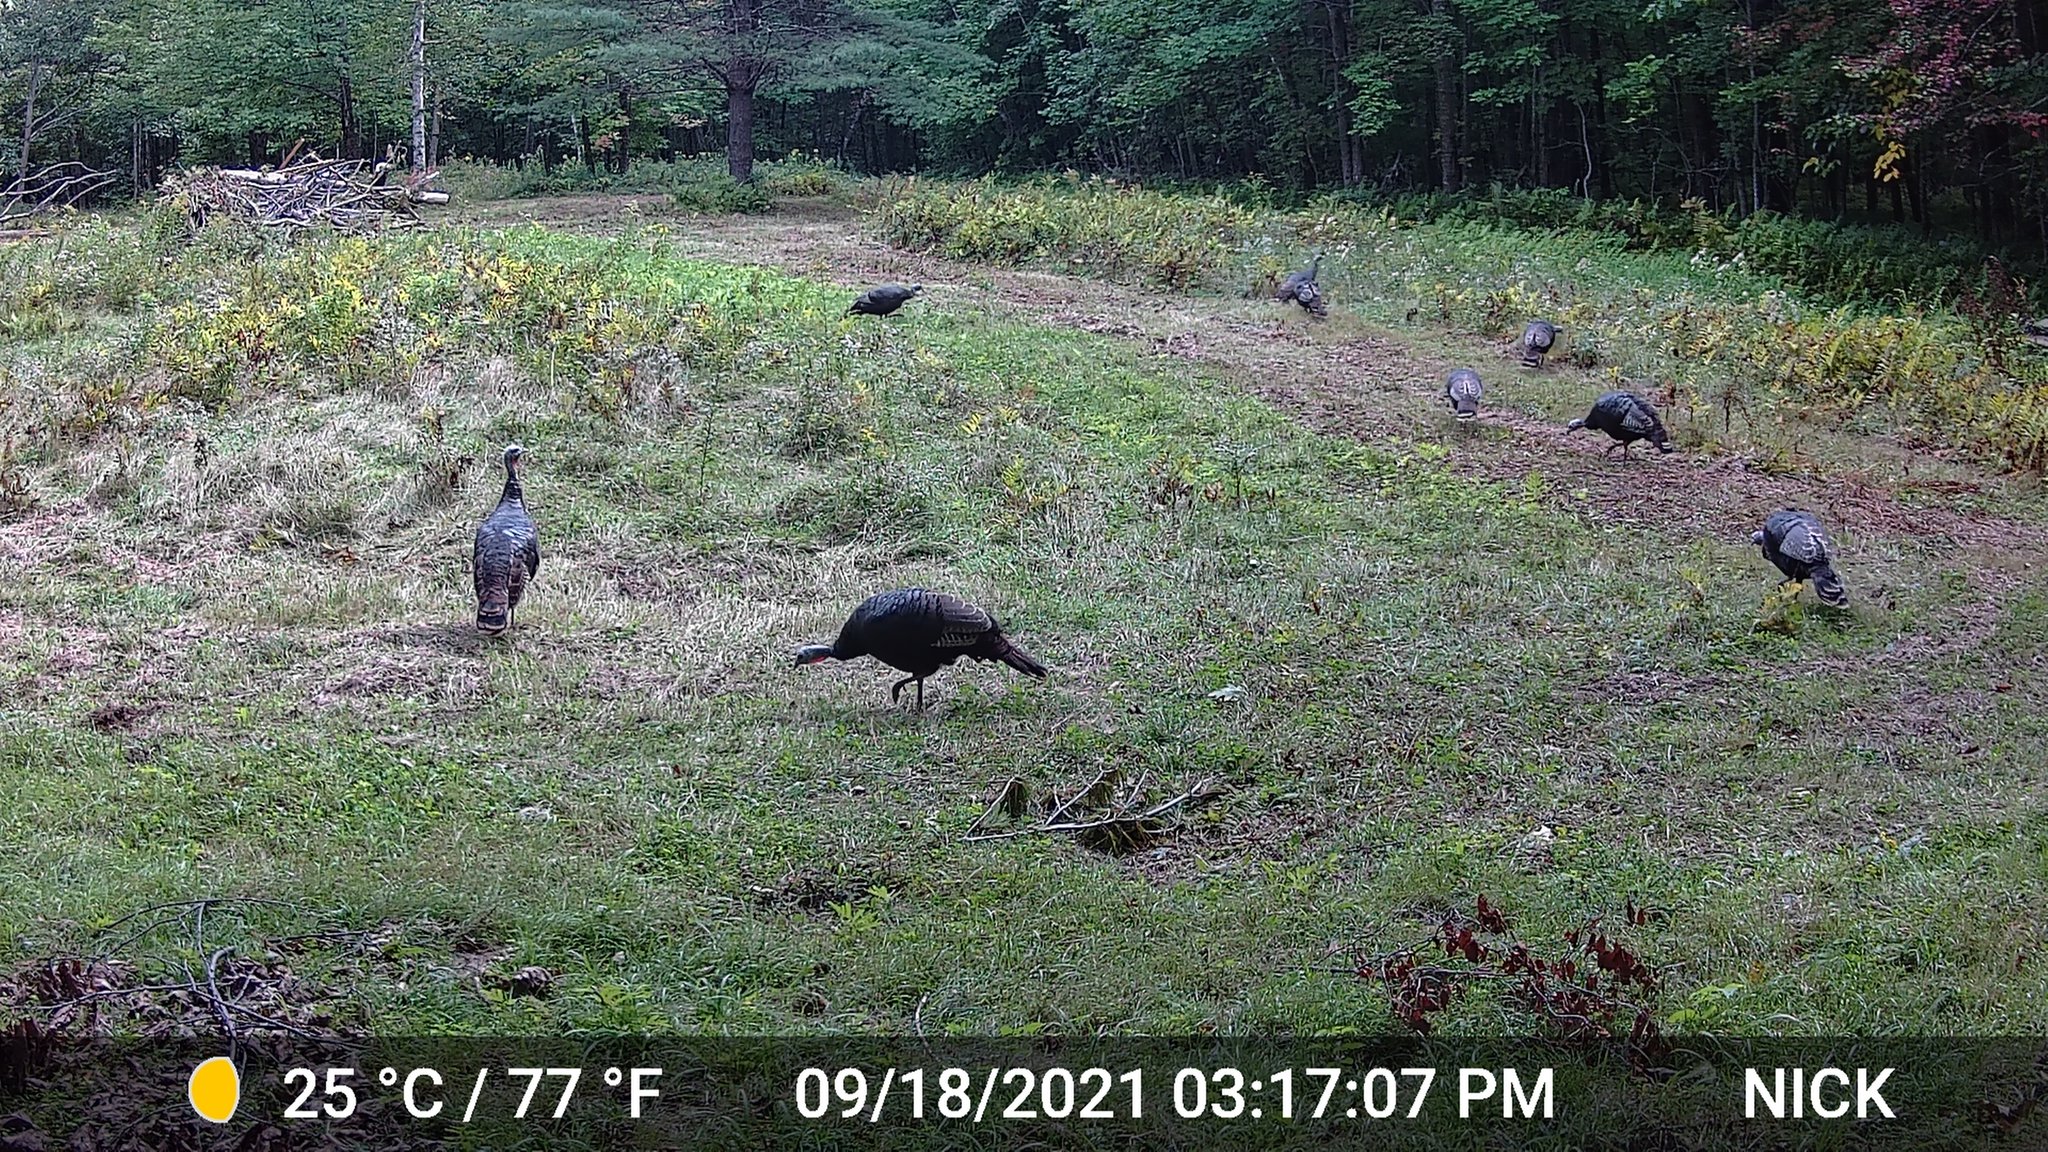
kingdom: Animalia
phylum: Chordata
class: Aves
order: Galliformes
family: Phasianidae
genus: Meleagris
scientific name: Meleagris gallopavo
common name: Wild turkey
